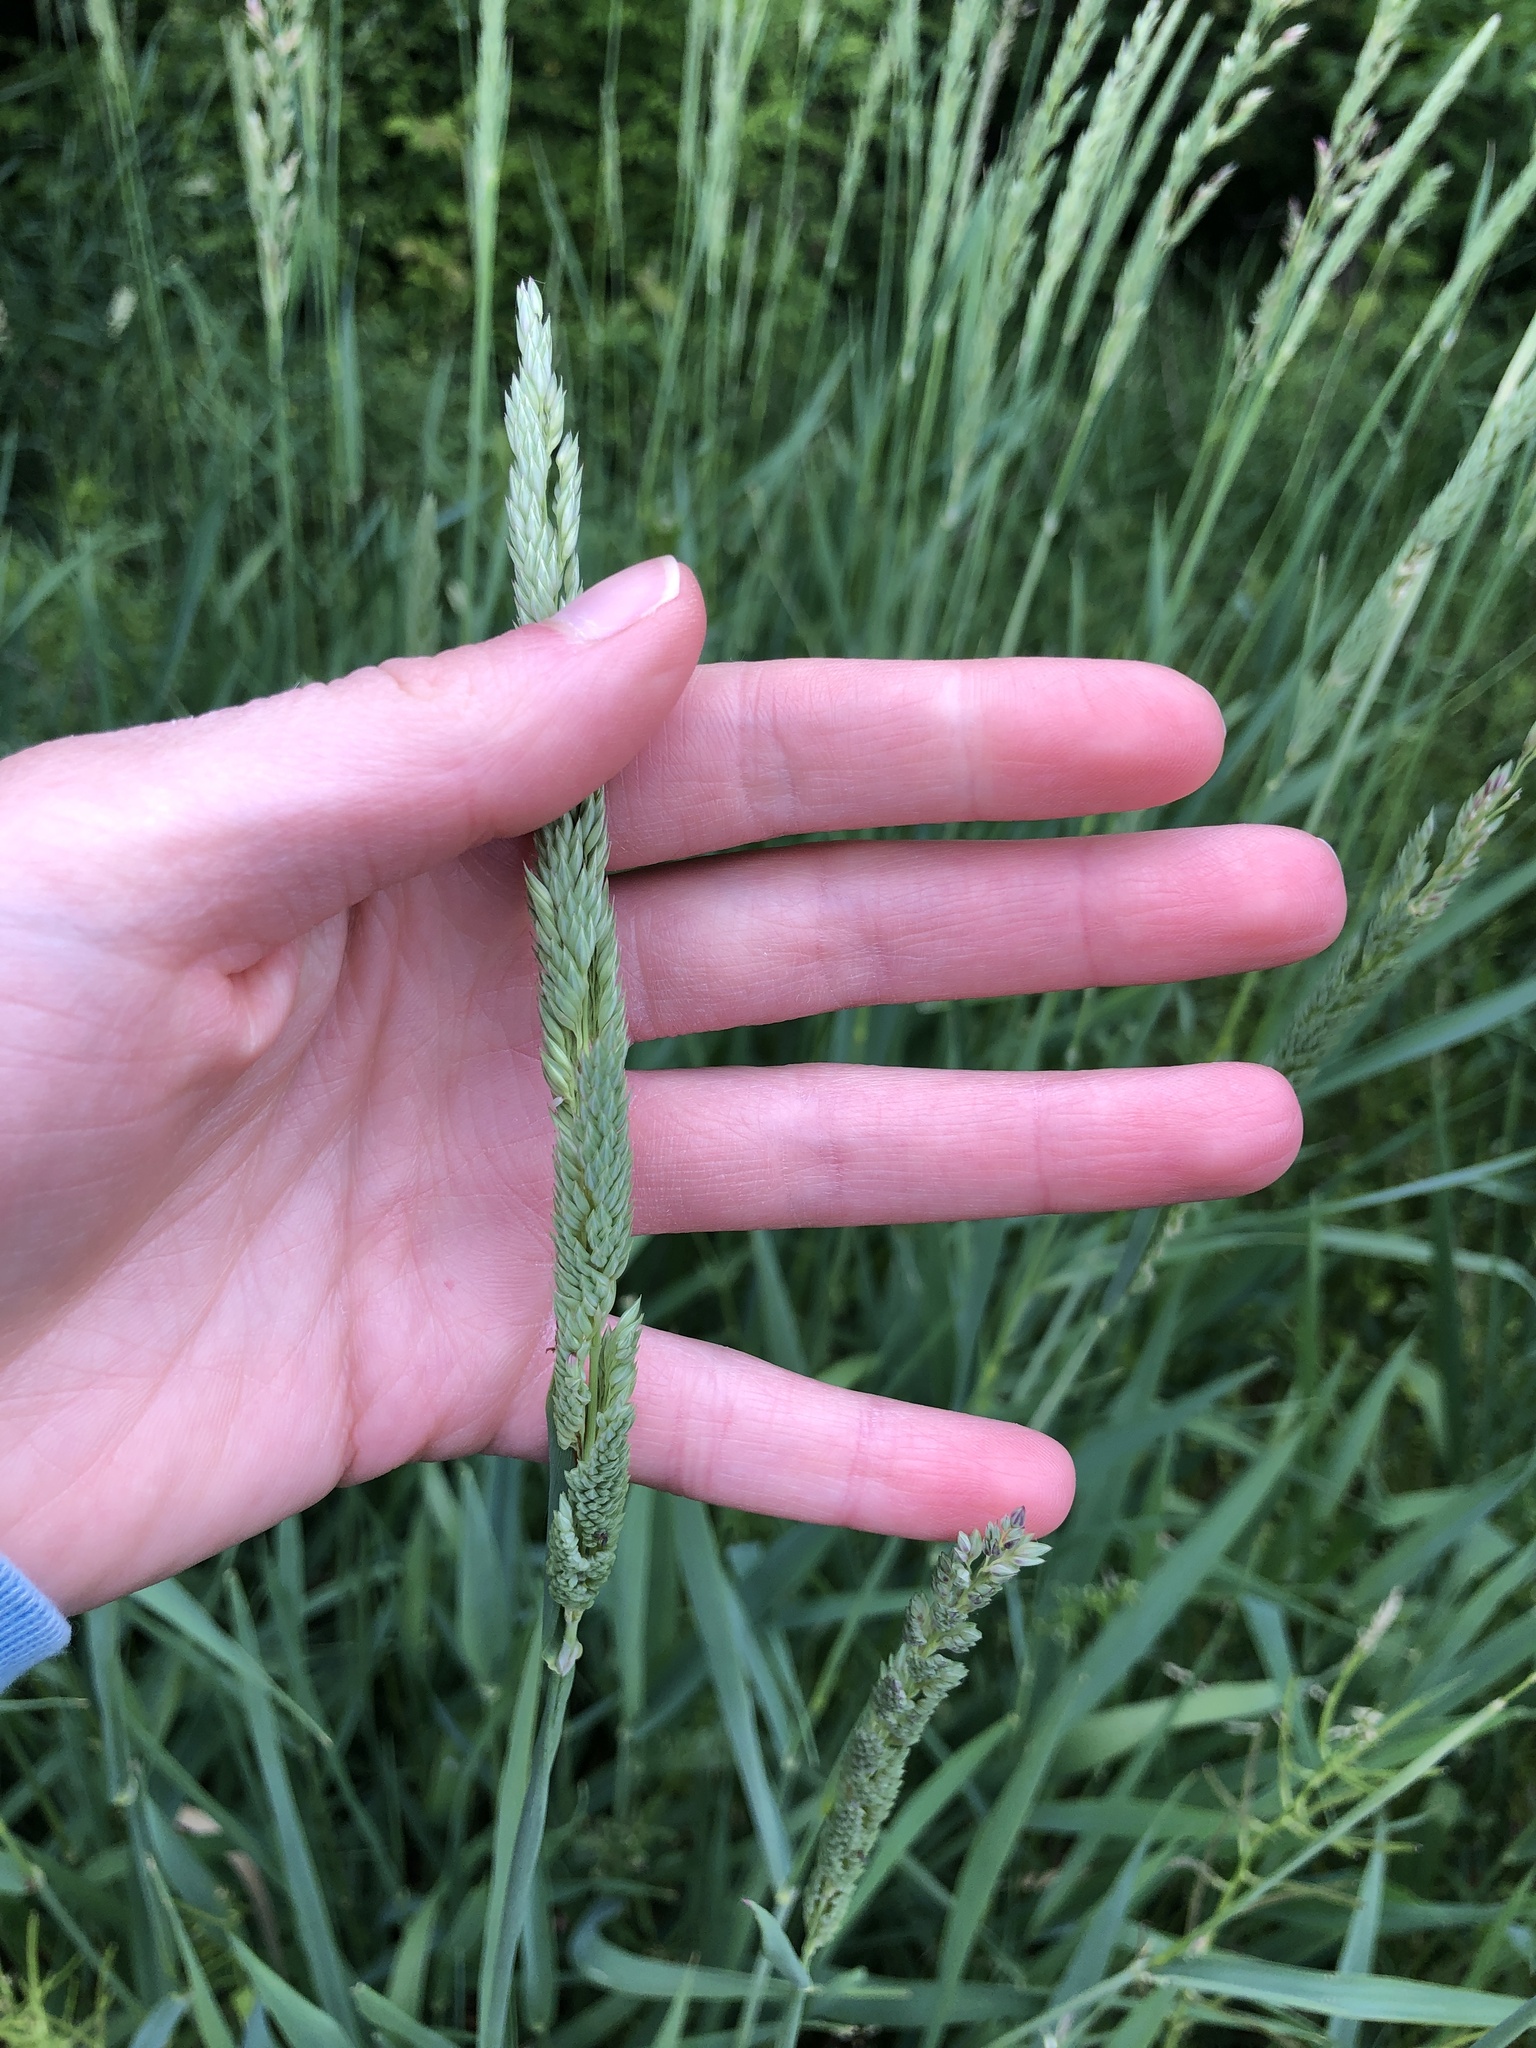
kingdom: Plantae
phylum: Tracheophyta
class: Liliopsida
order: Poales
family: Poaceae
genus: Phalaris
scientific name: Phalaris arundinacea
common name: Reed canary-grass
